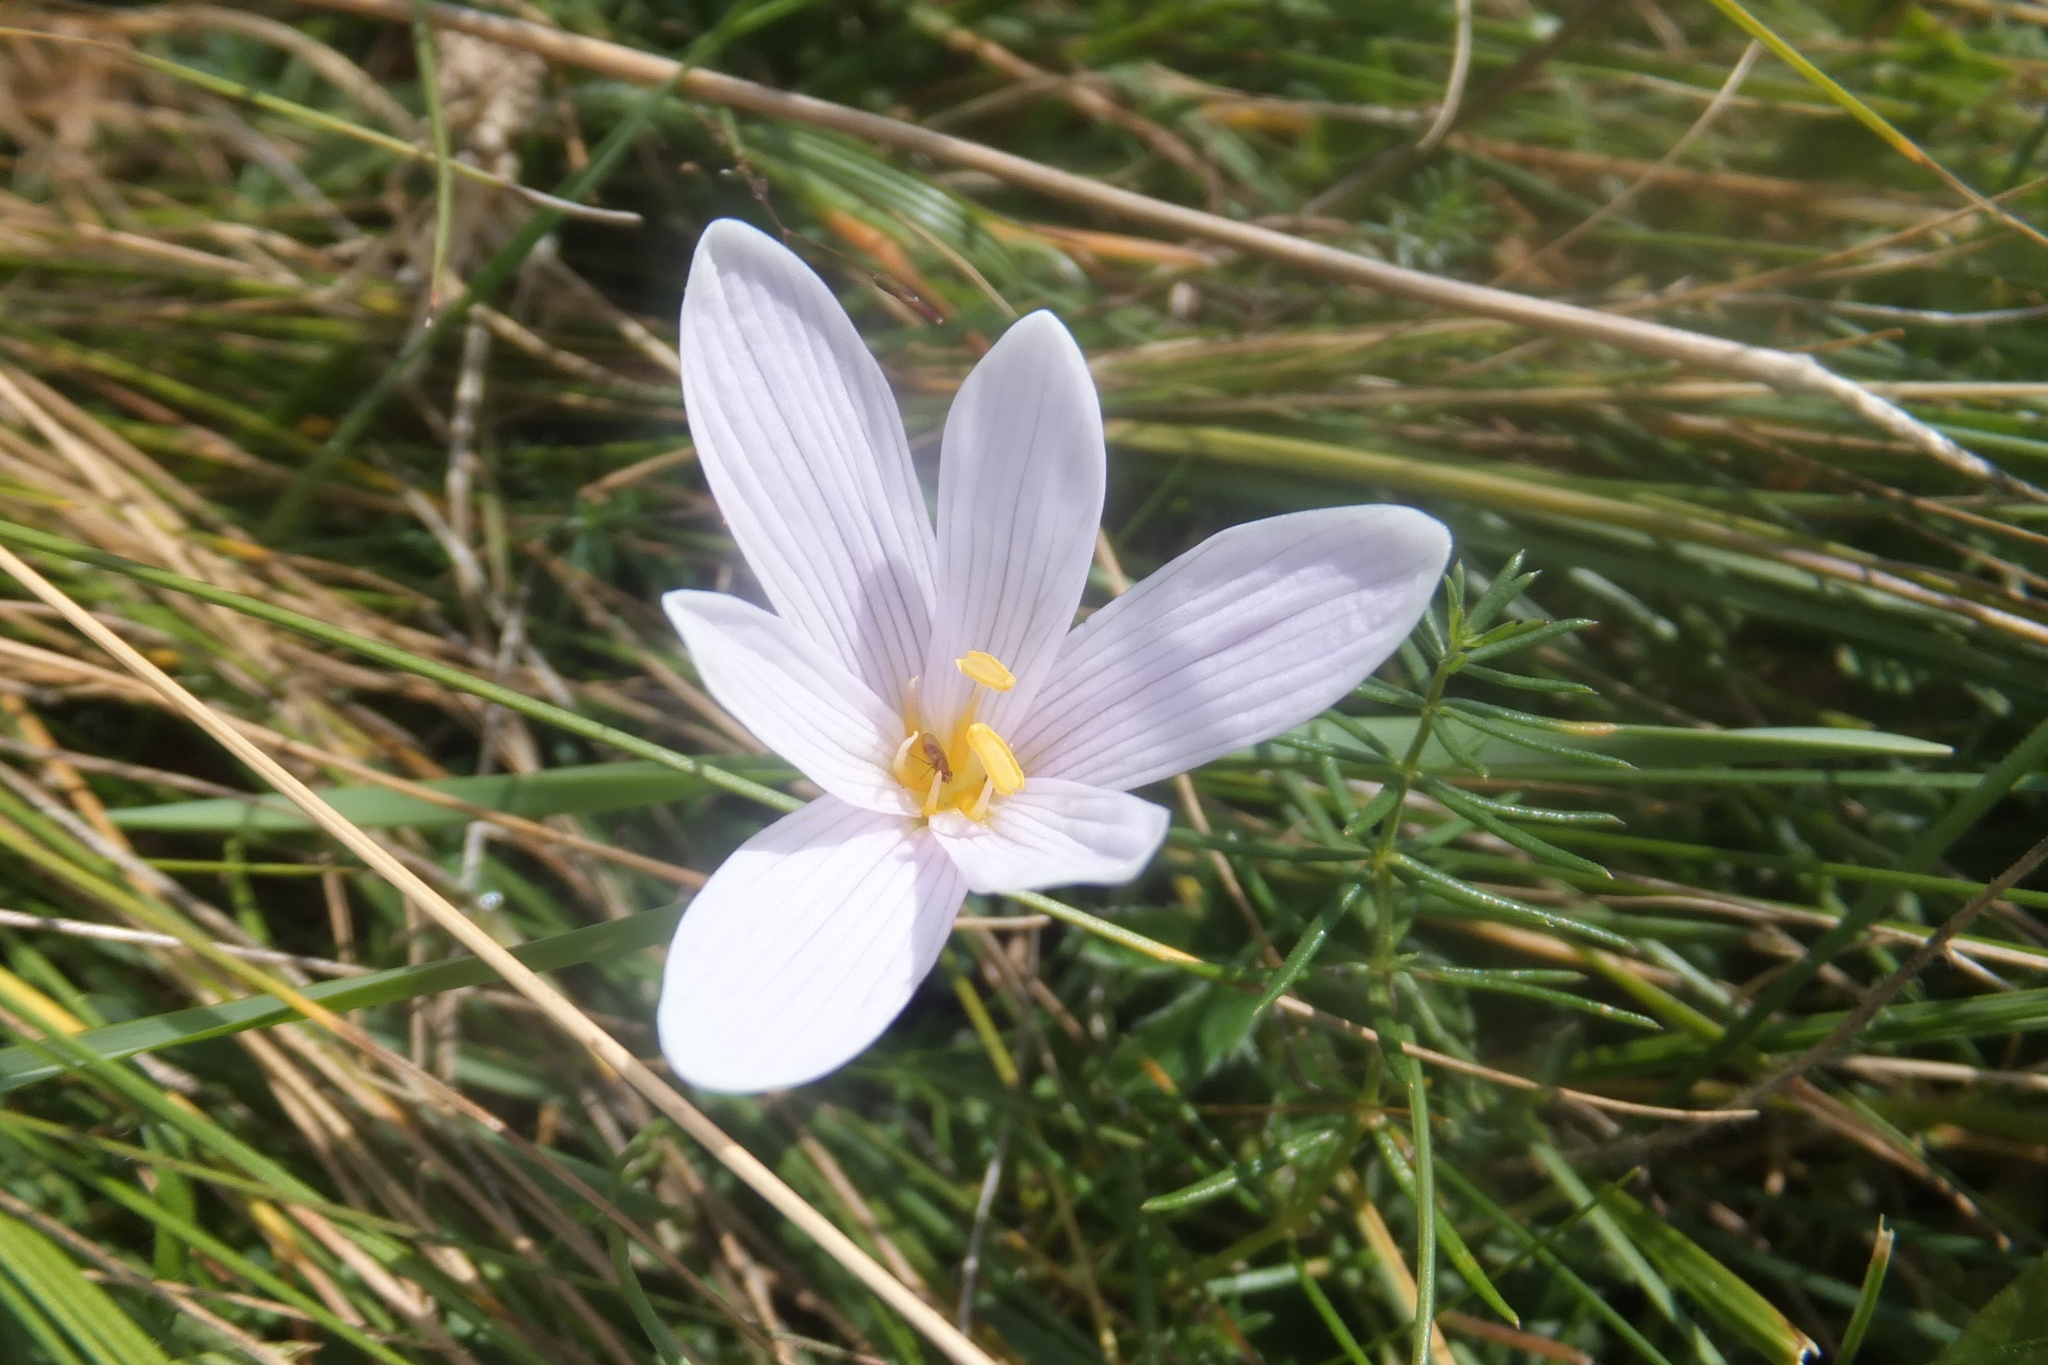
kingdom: Plantae
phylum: Tracheophyta
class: Liliopsida
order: Liliales
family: Colchicaceae
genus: Colchicum
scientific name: Colchicum alpinum
